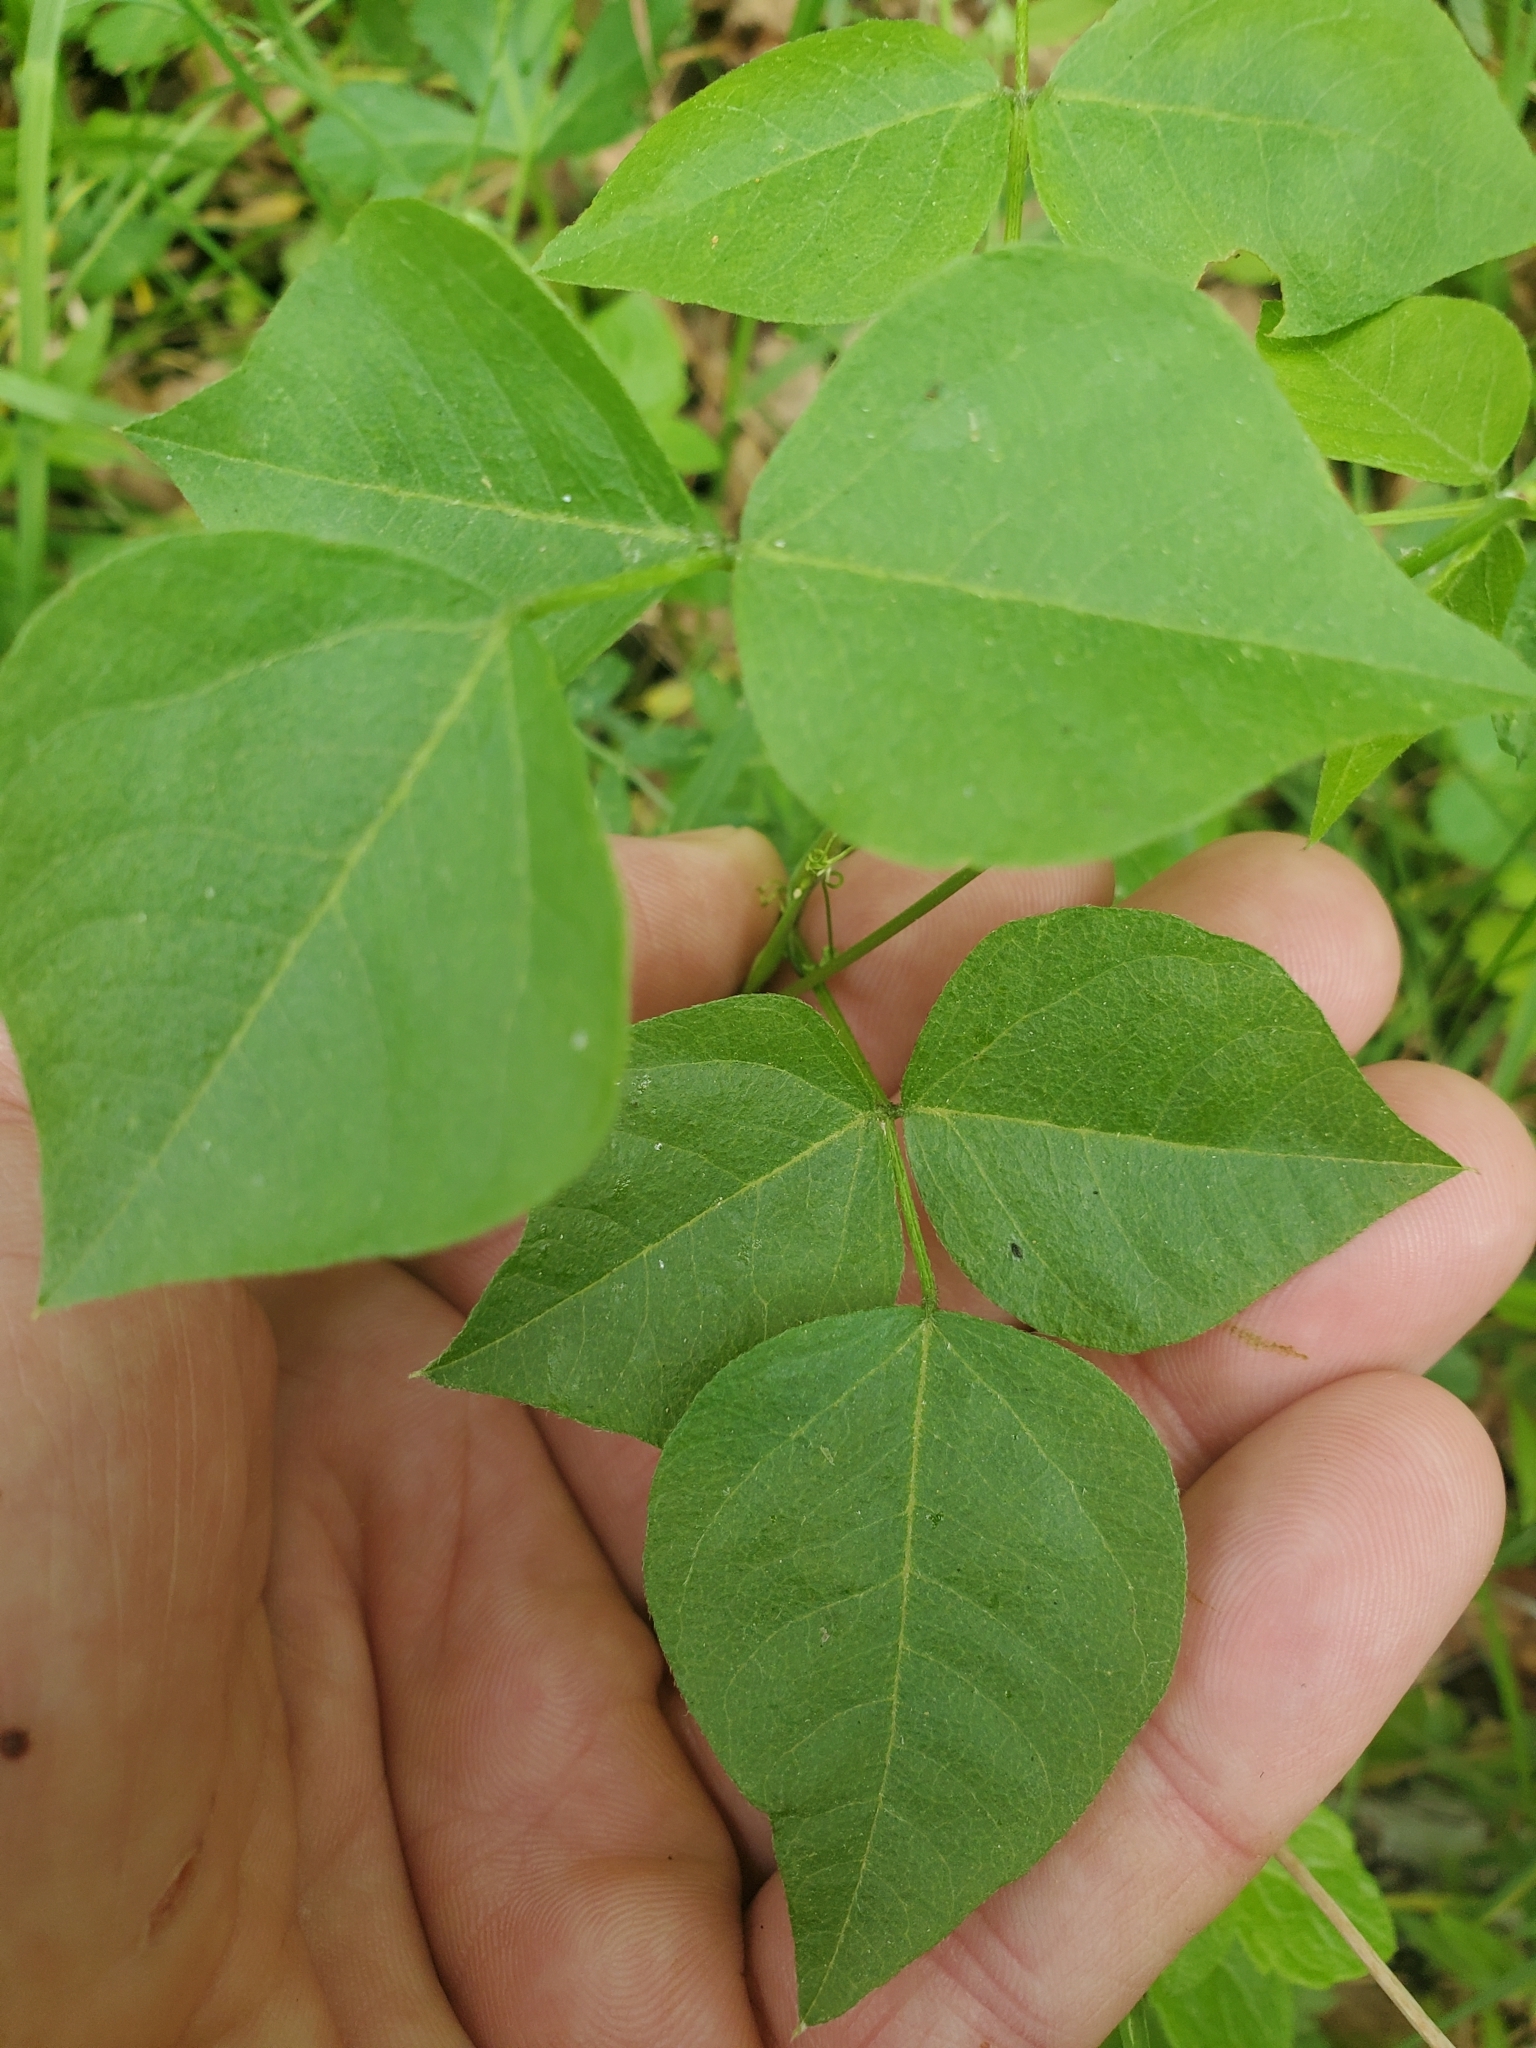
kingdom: Plantae
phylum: Tracheophyta
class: Magnoliopsida
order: Fabales
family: Fabaceae
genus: Rupertia
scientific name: Rupertia physodes
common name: California-tea
